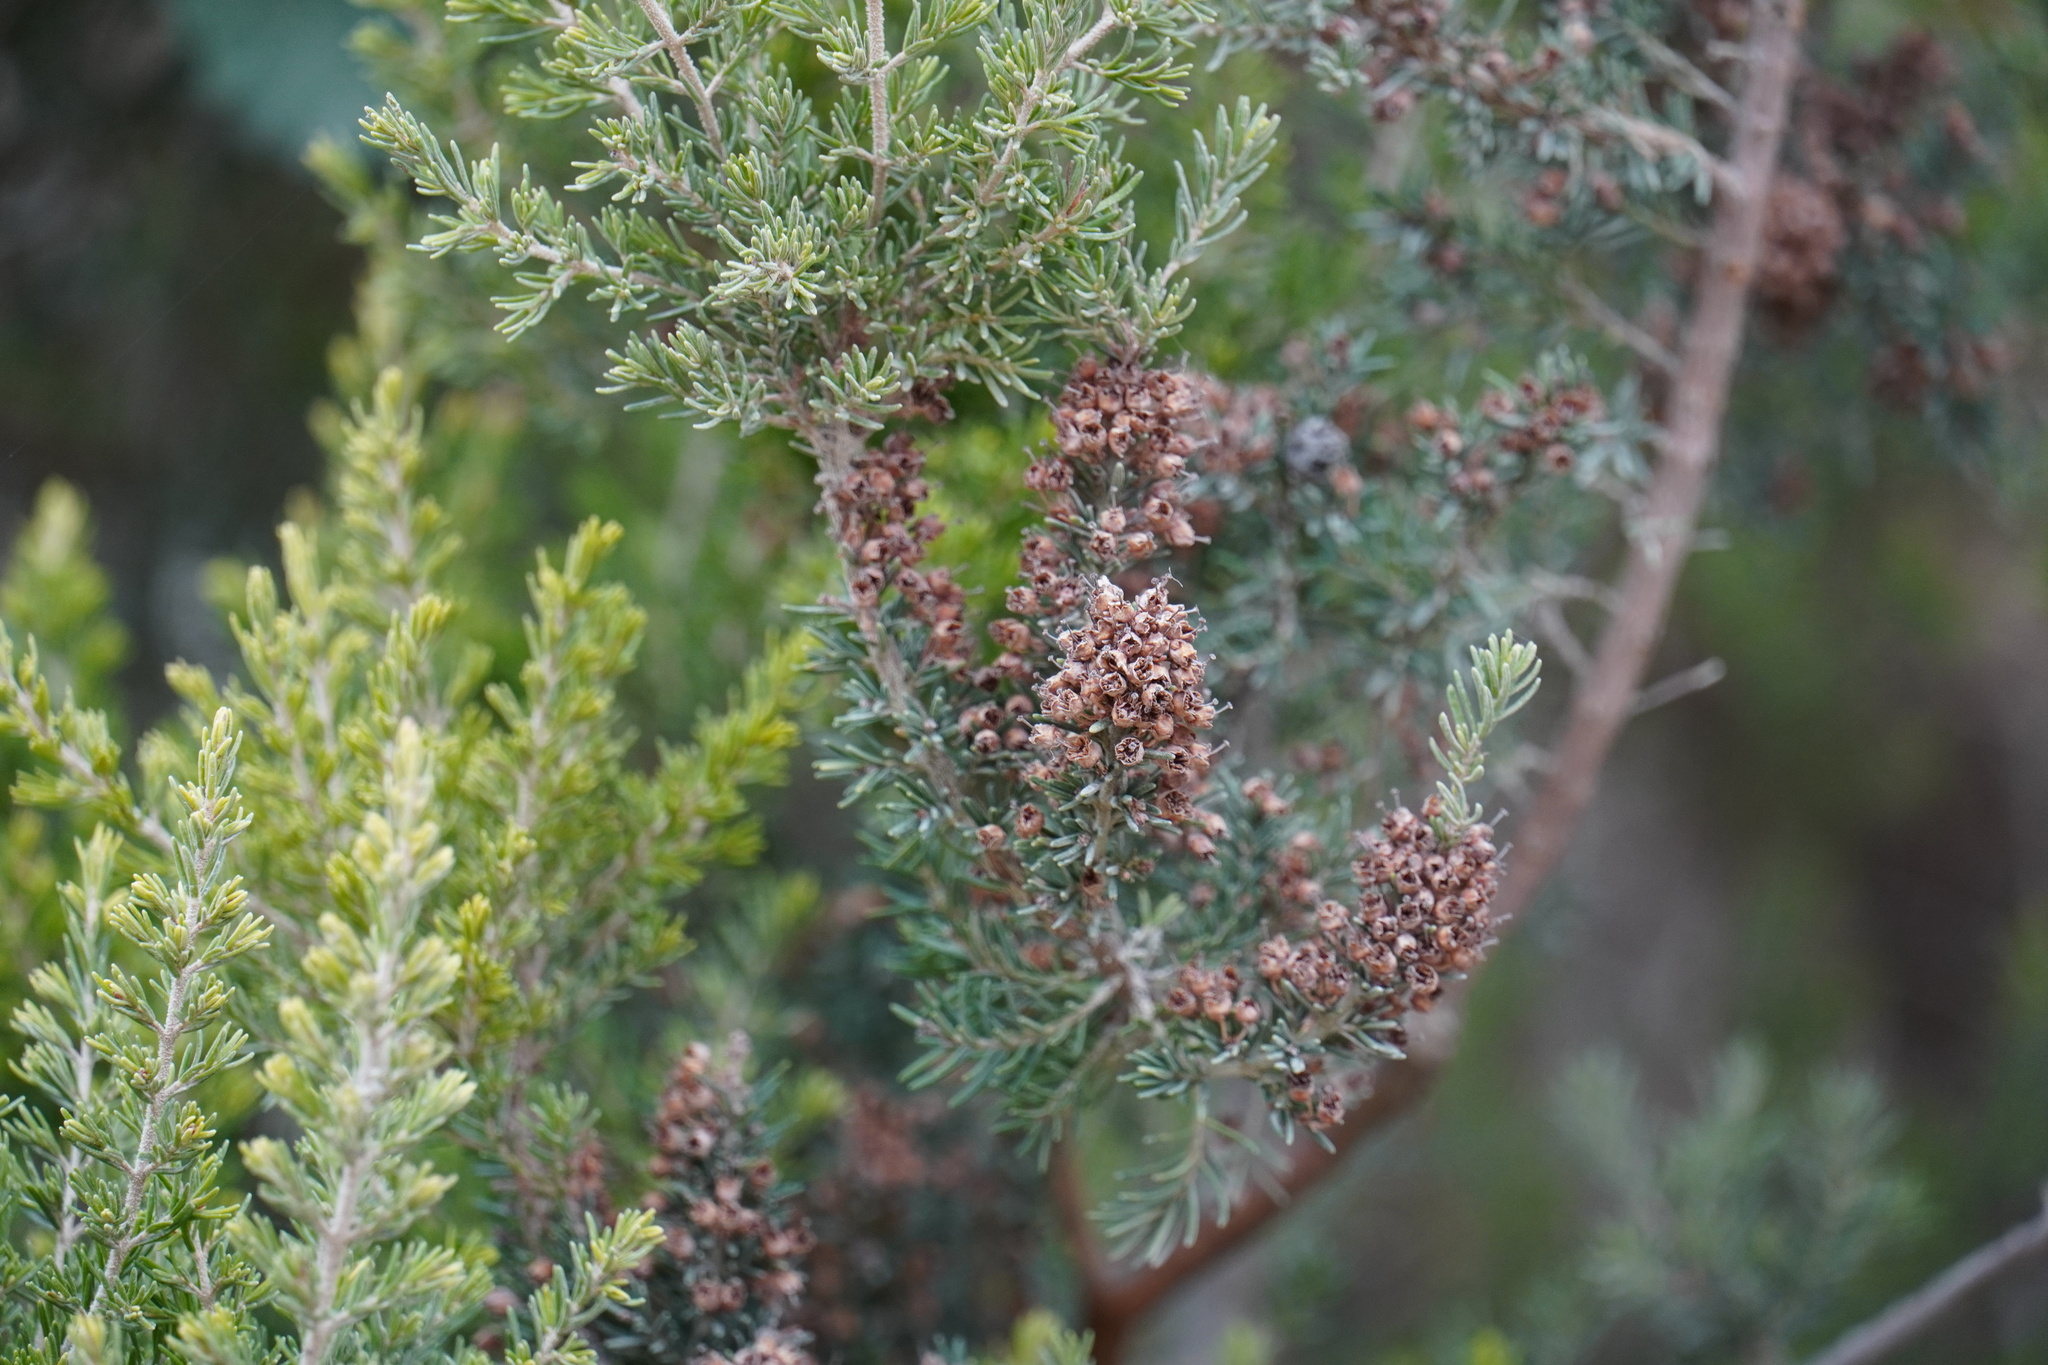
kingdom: Plantae
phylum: Tracheophyta
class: Magnoliopsida
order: Ericales
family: Ericaceae
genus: Erica
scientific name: Erica arborea
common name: Tree heath
